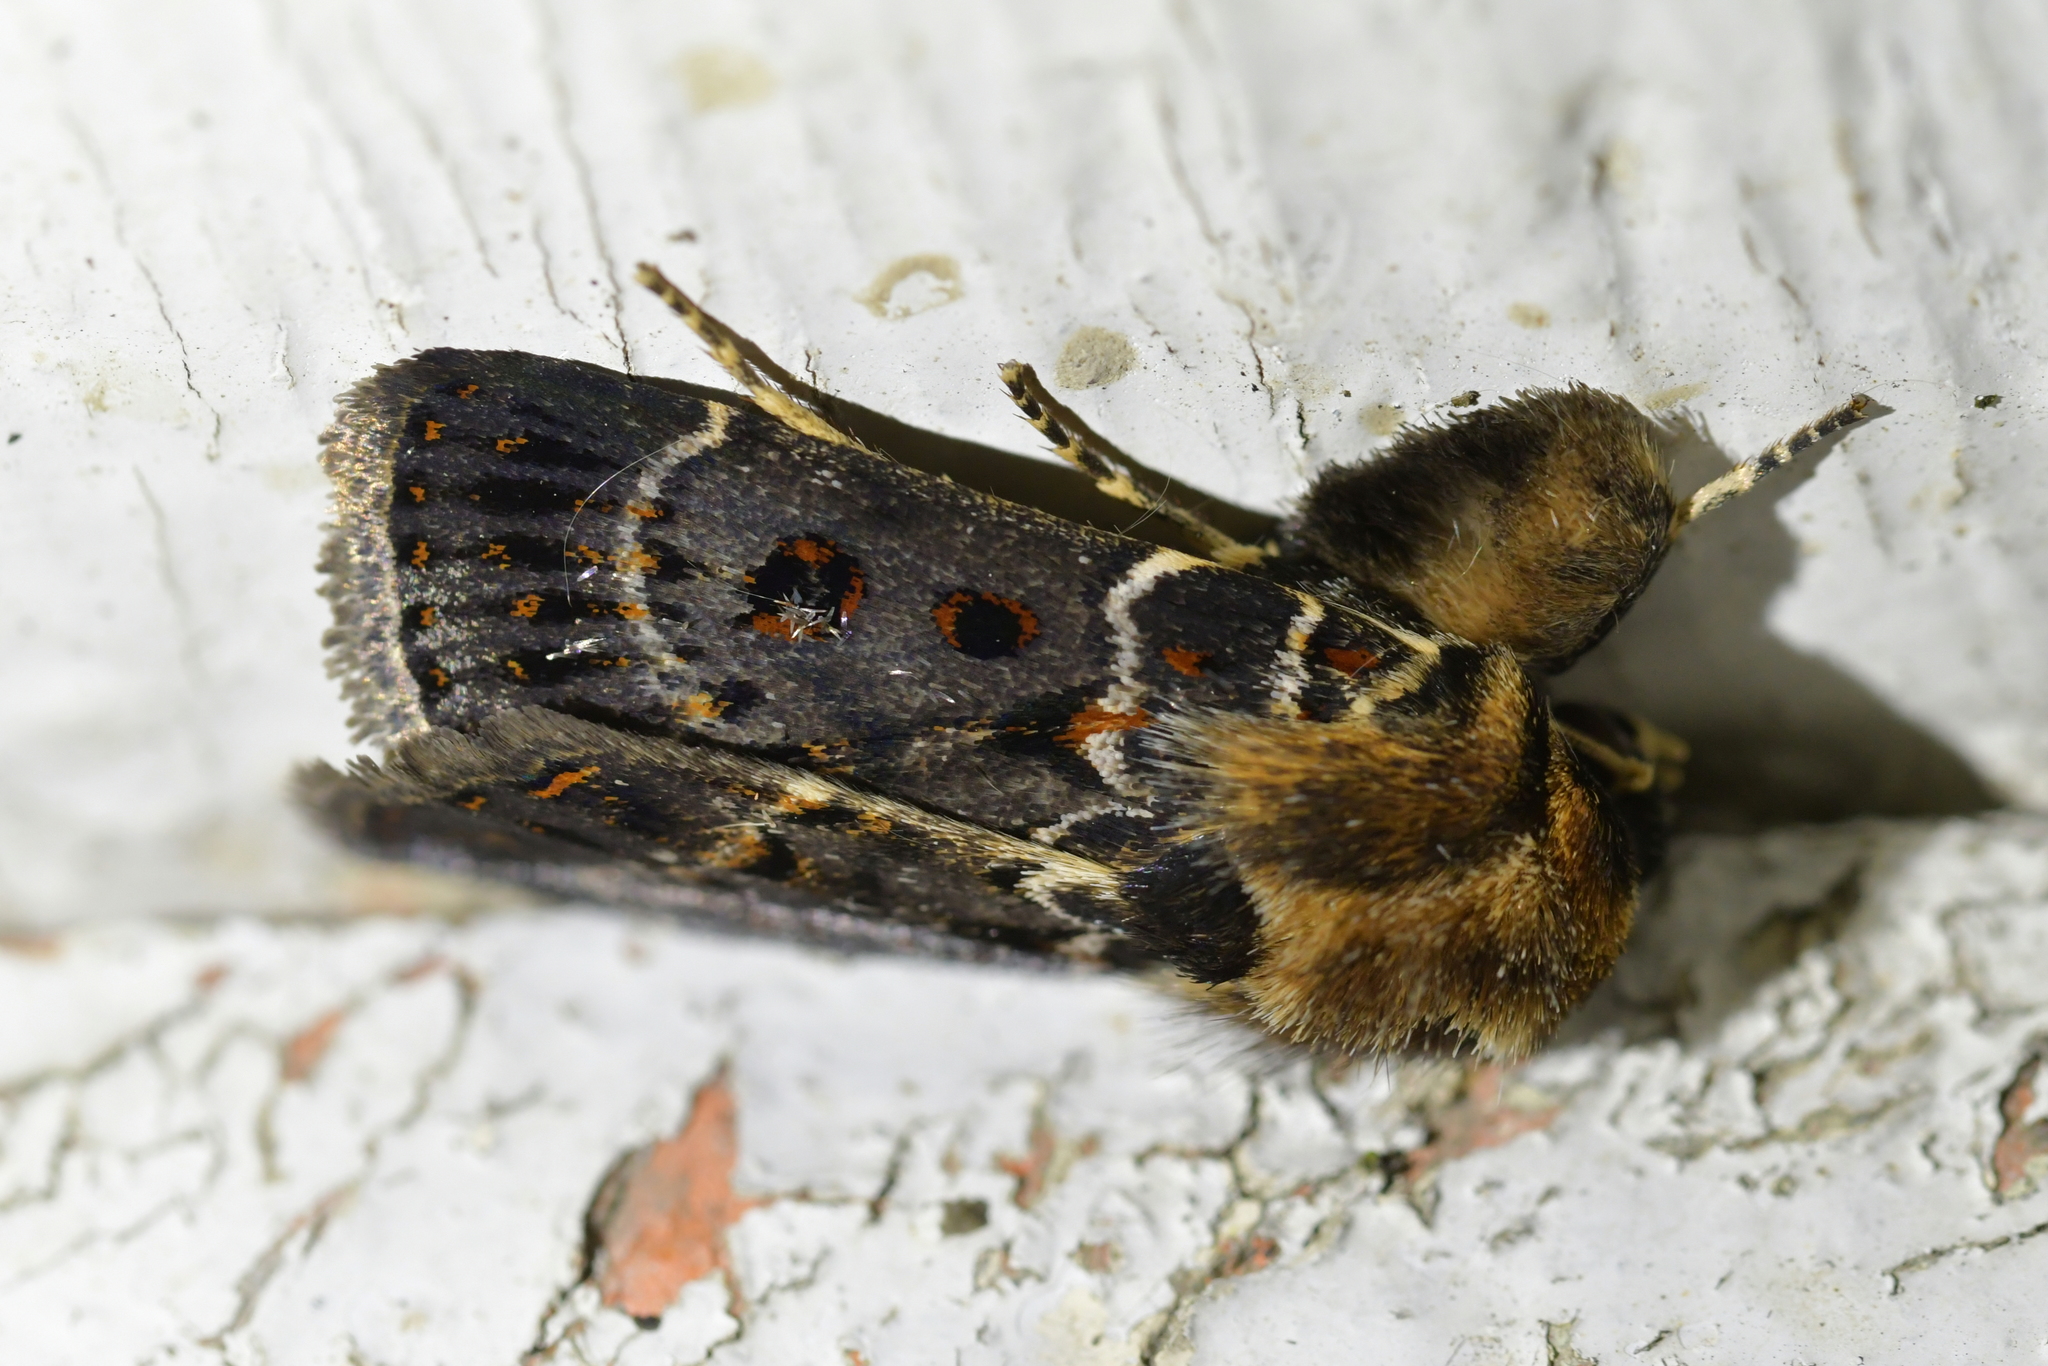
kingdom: Animalia
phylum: Arthropoda
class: Insecta
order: Lepidoptera
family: Noctuidae
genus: Proteuxoa
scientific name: Proteuxoa sanguinipuncta
